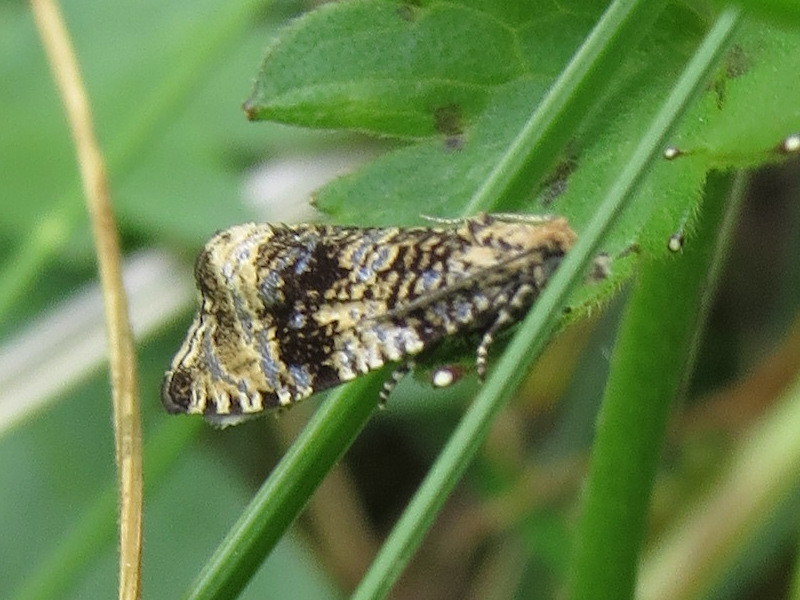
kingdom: Animalia
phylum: Arthropoda
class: Insecta
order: Lepidoptera
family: Tortricidae
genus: Syricoris
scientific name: Syricoris lacunana
